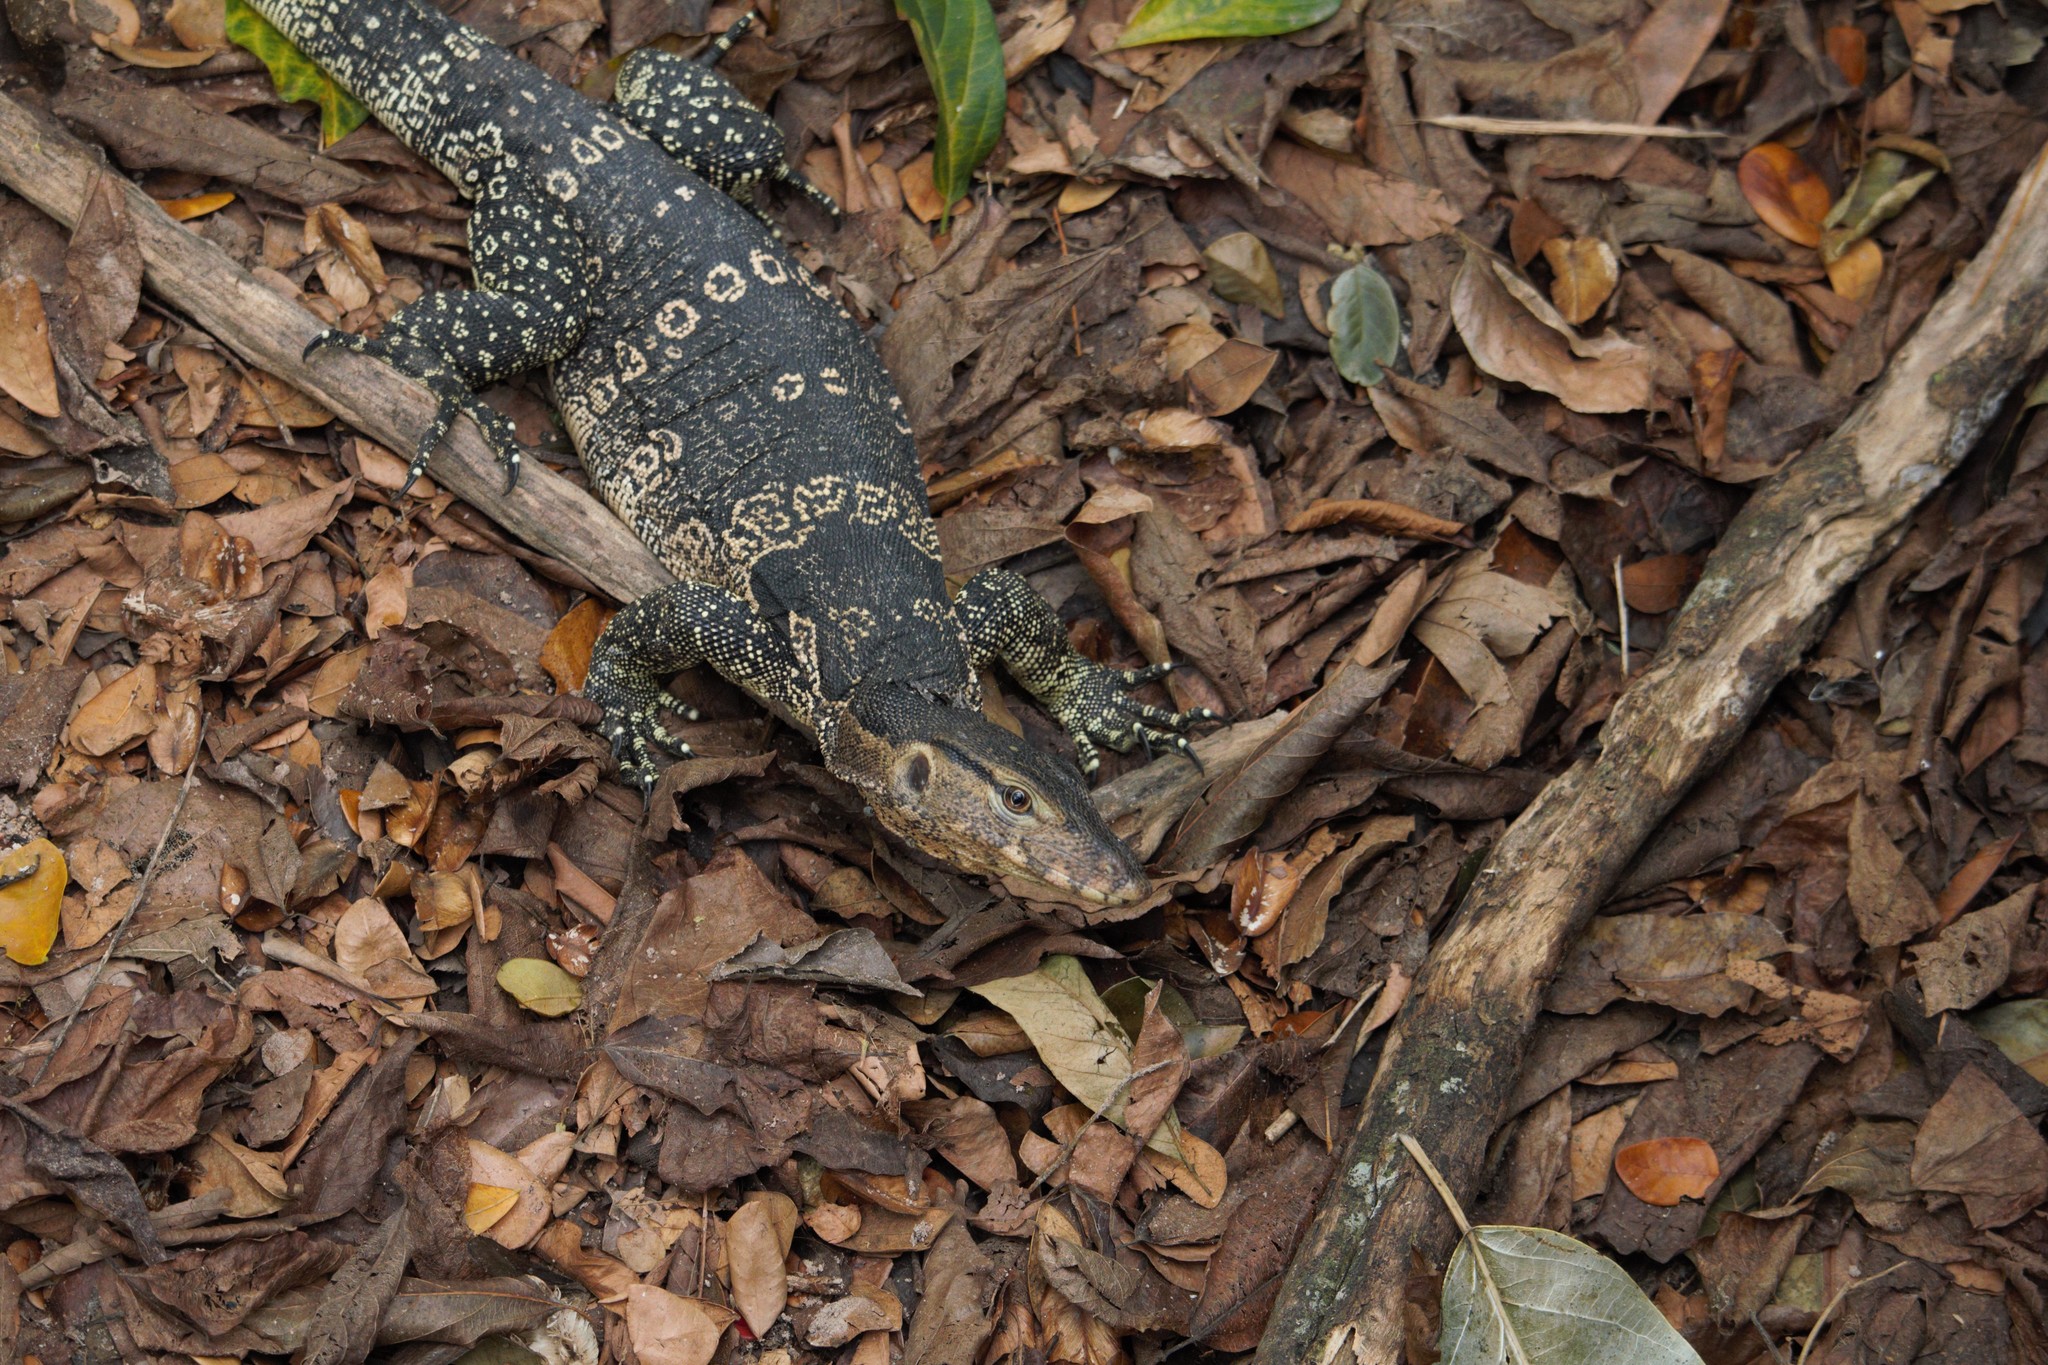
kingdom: Animalia
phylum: Chordata
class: Squamata
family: Varanidae
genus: Varanus
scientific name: Varanus salvator
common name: Common water monitor
